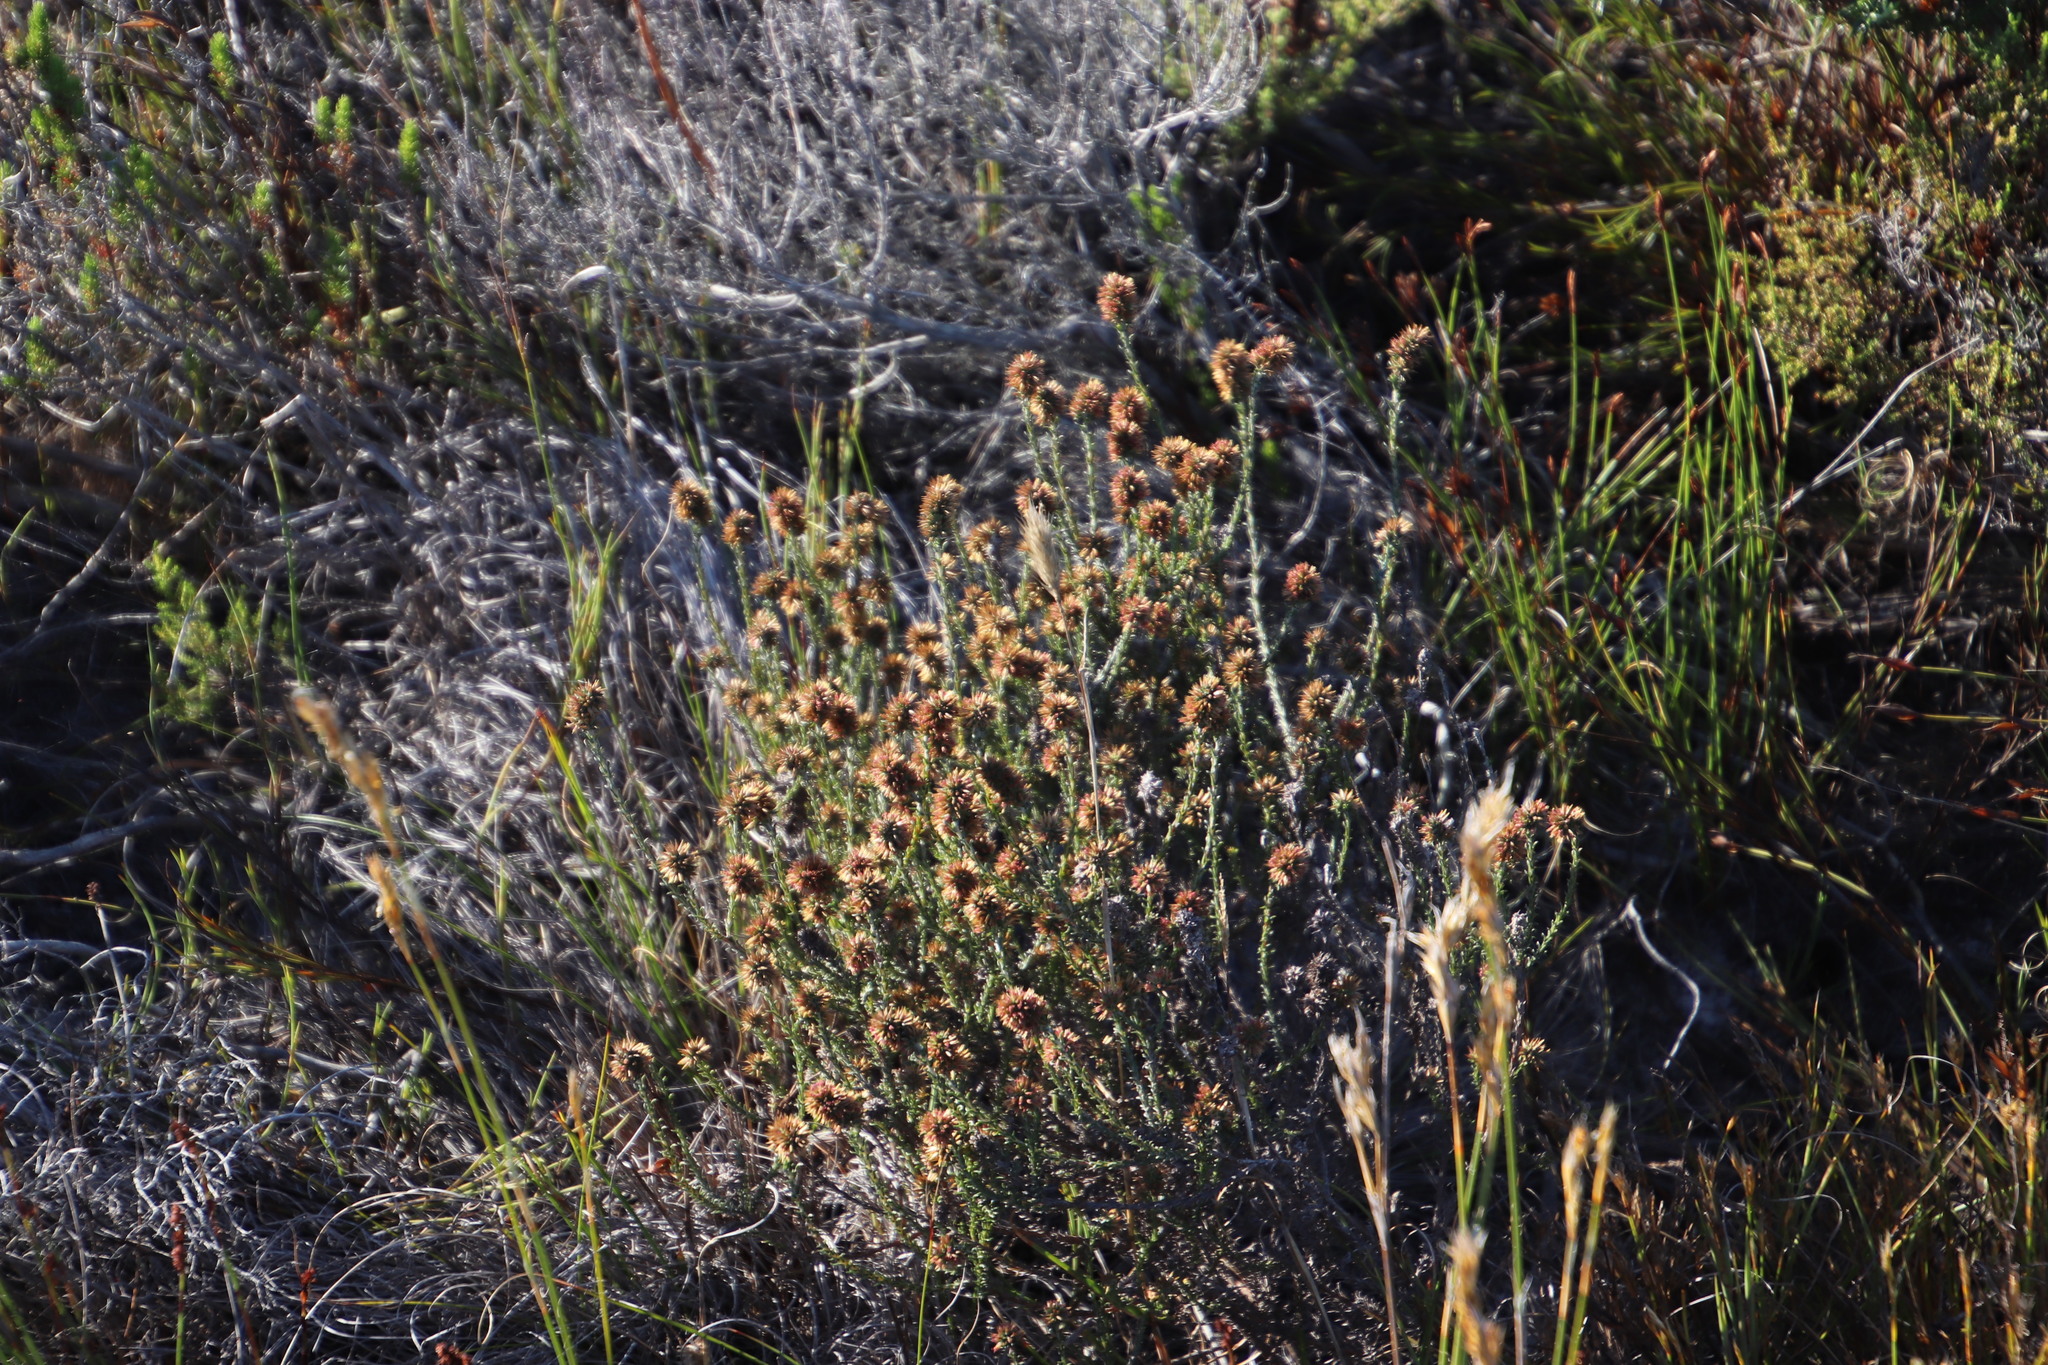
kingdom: Plantae
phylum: Tracheophyta
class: Magnoliopsida
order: Asterales
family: Asteraceae
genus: Seriphium
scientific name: Seriphium incanum
